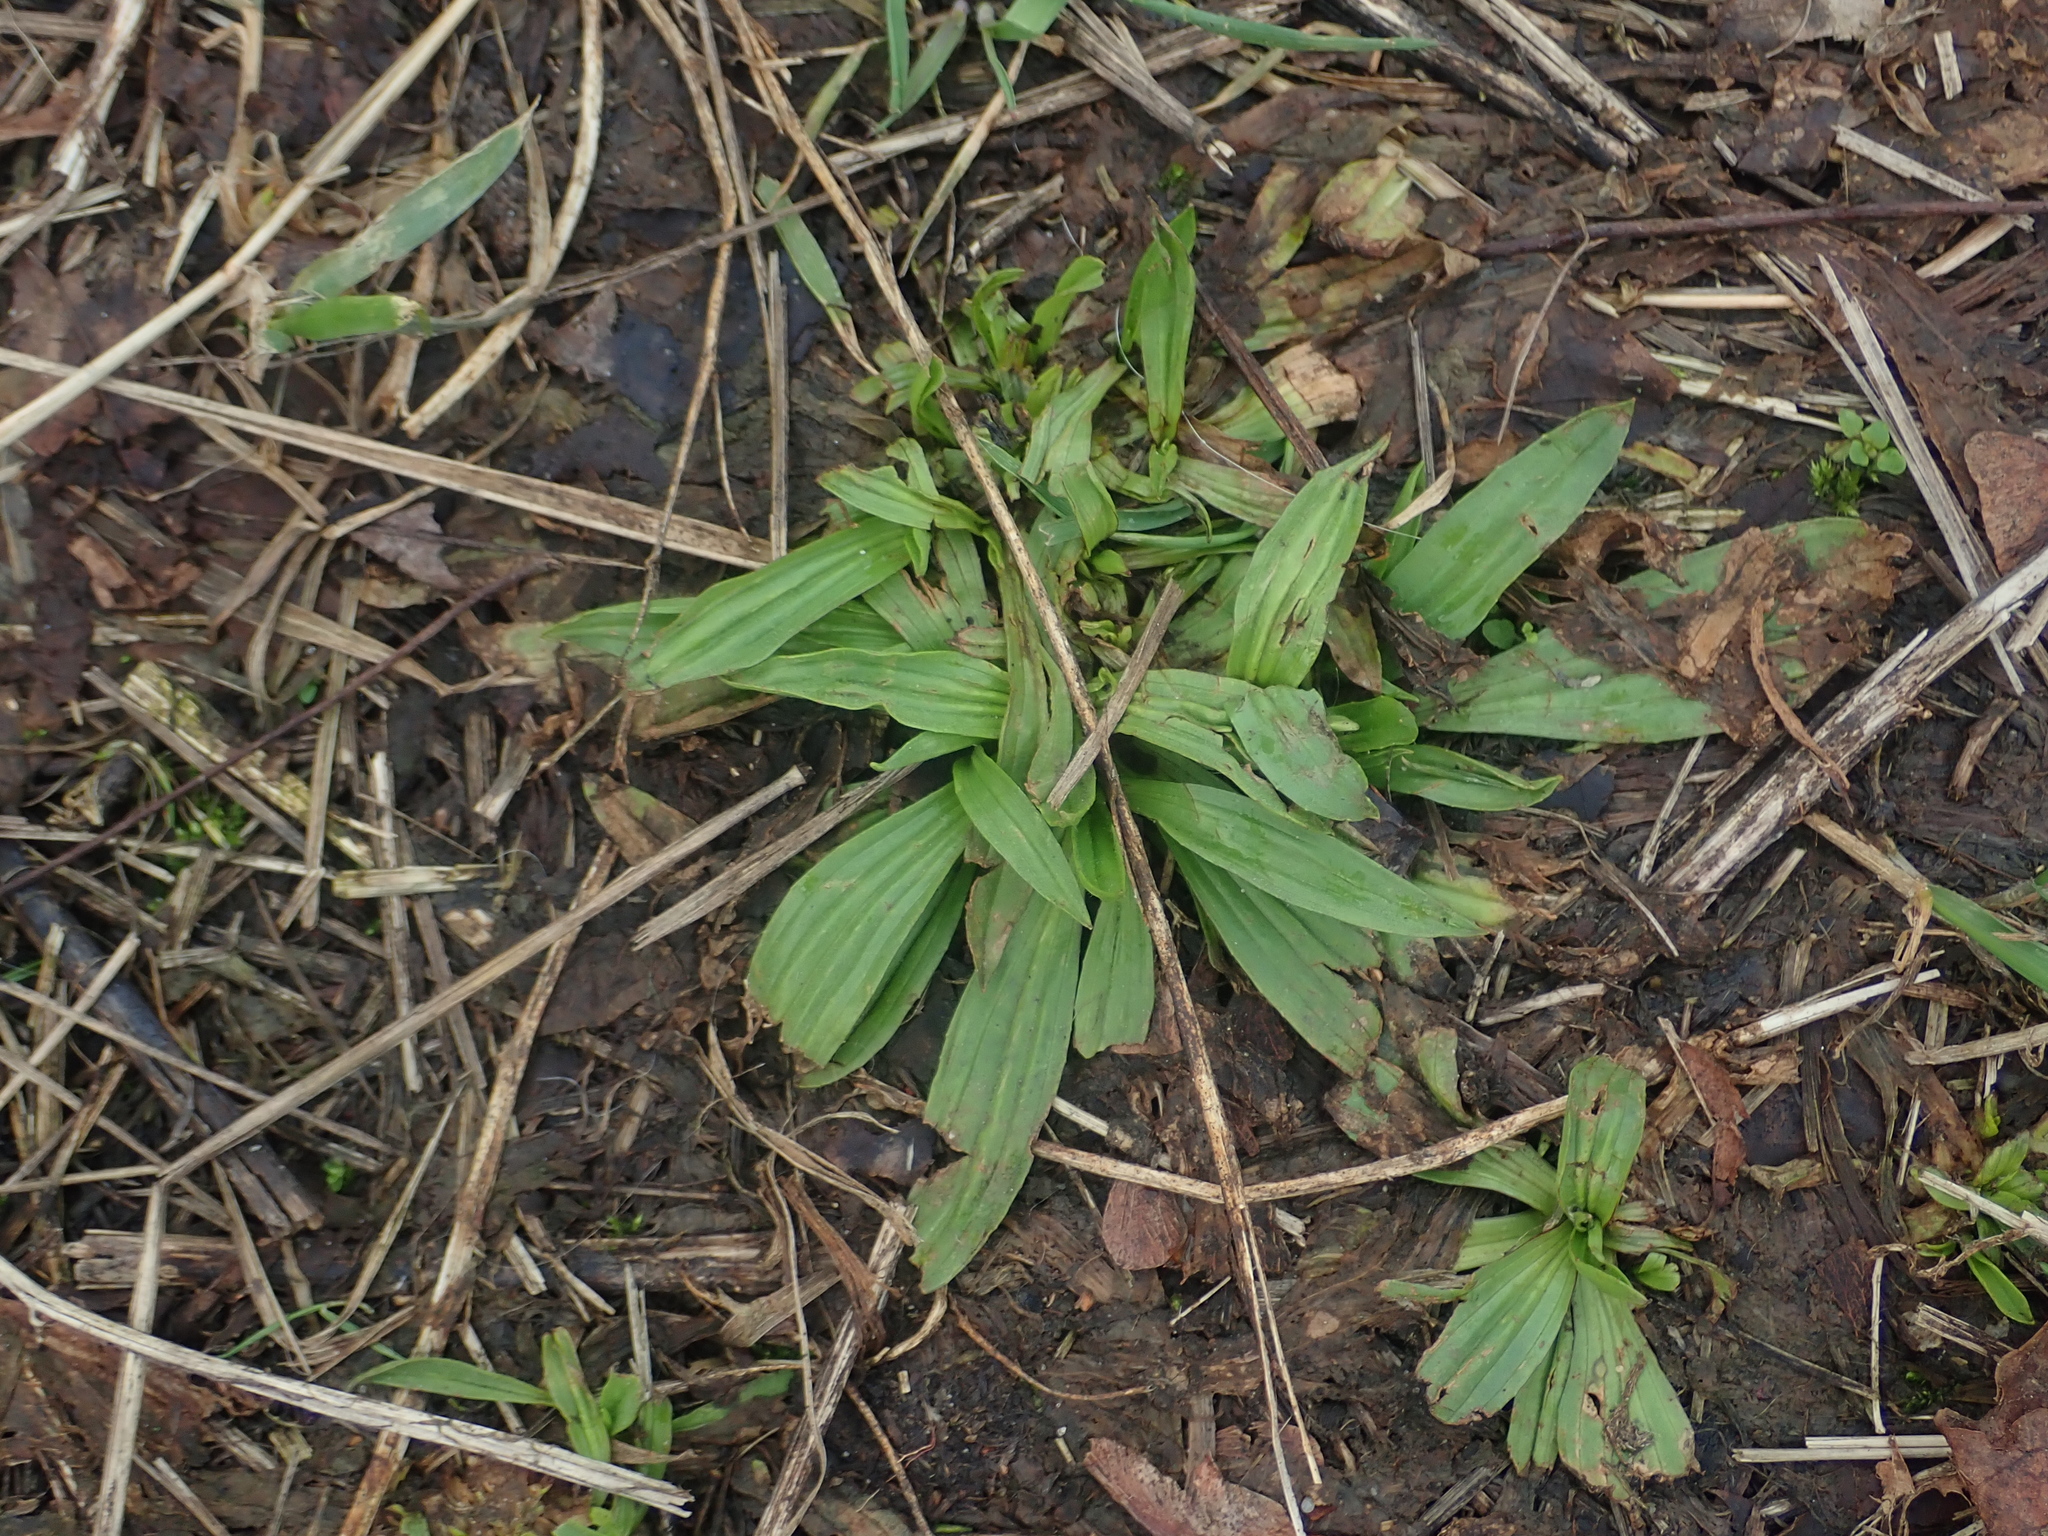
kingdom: Plantae
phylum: Tracheophyta
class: Magnoliopsida
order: Lamiales
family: Plantaginaceae
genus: Plantago
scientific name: Plantago lanceolata
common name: Ribwort plantain
